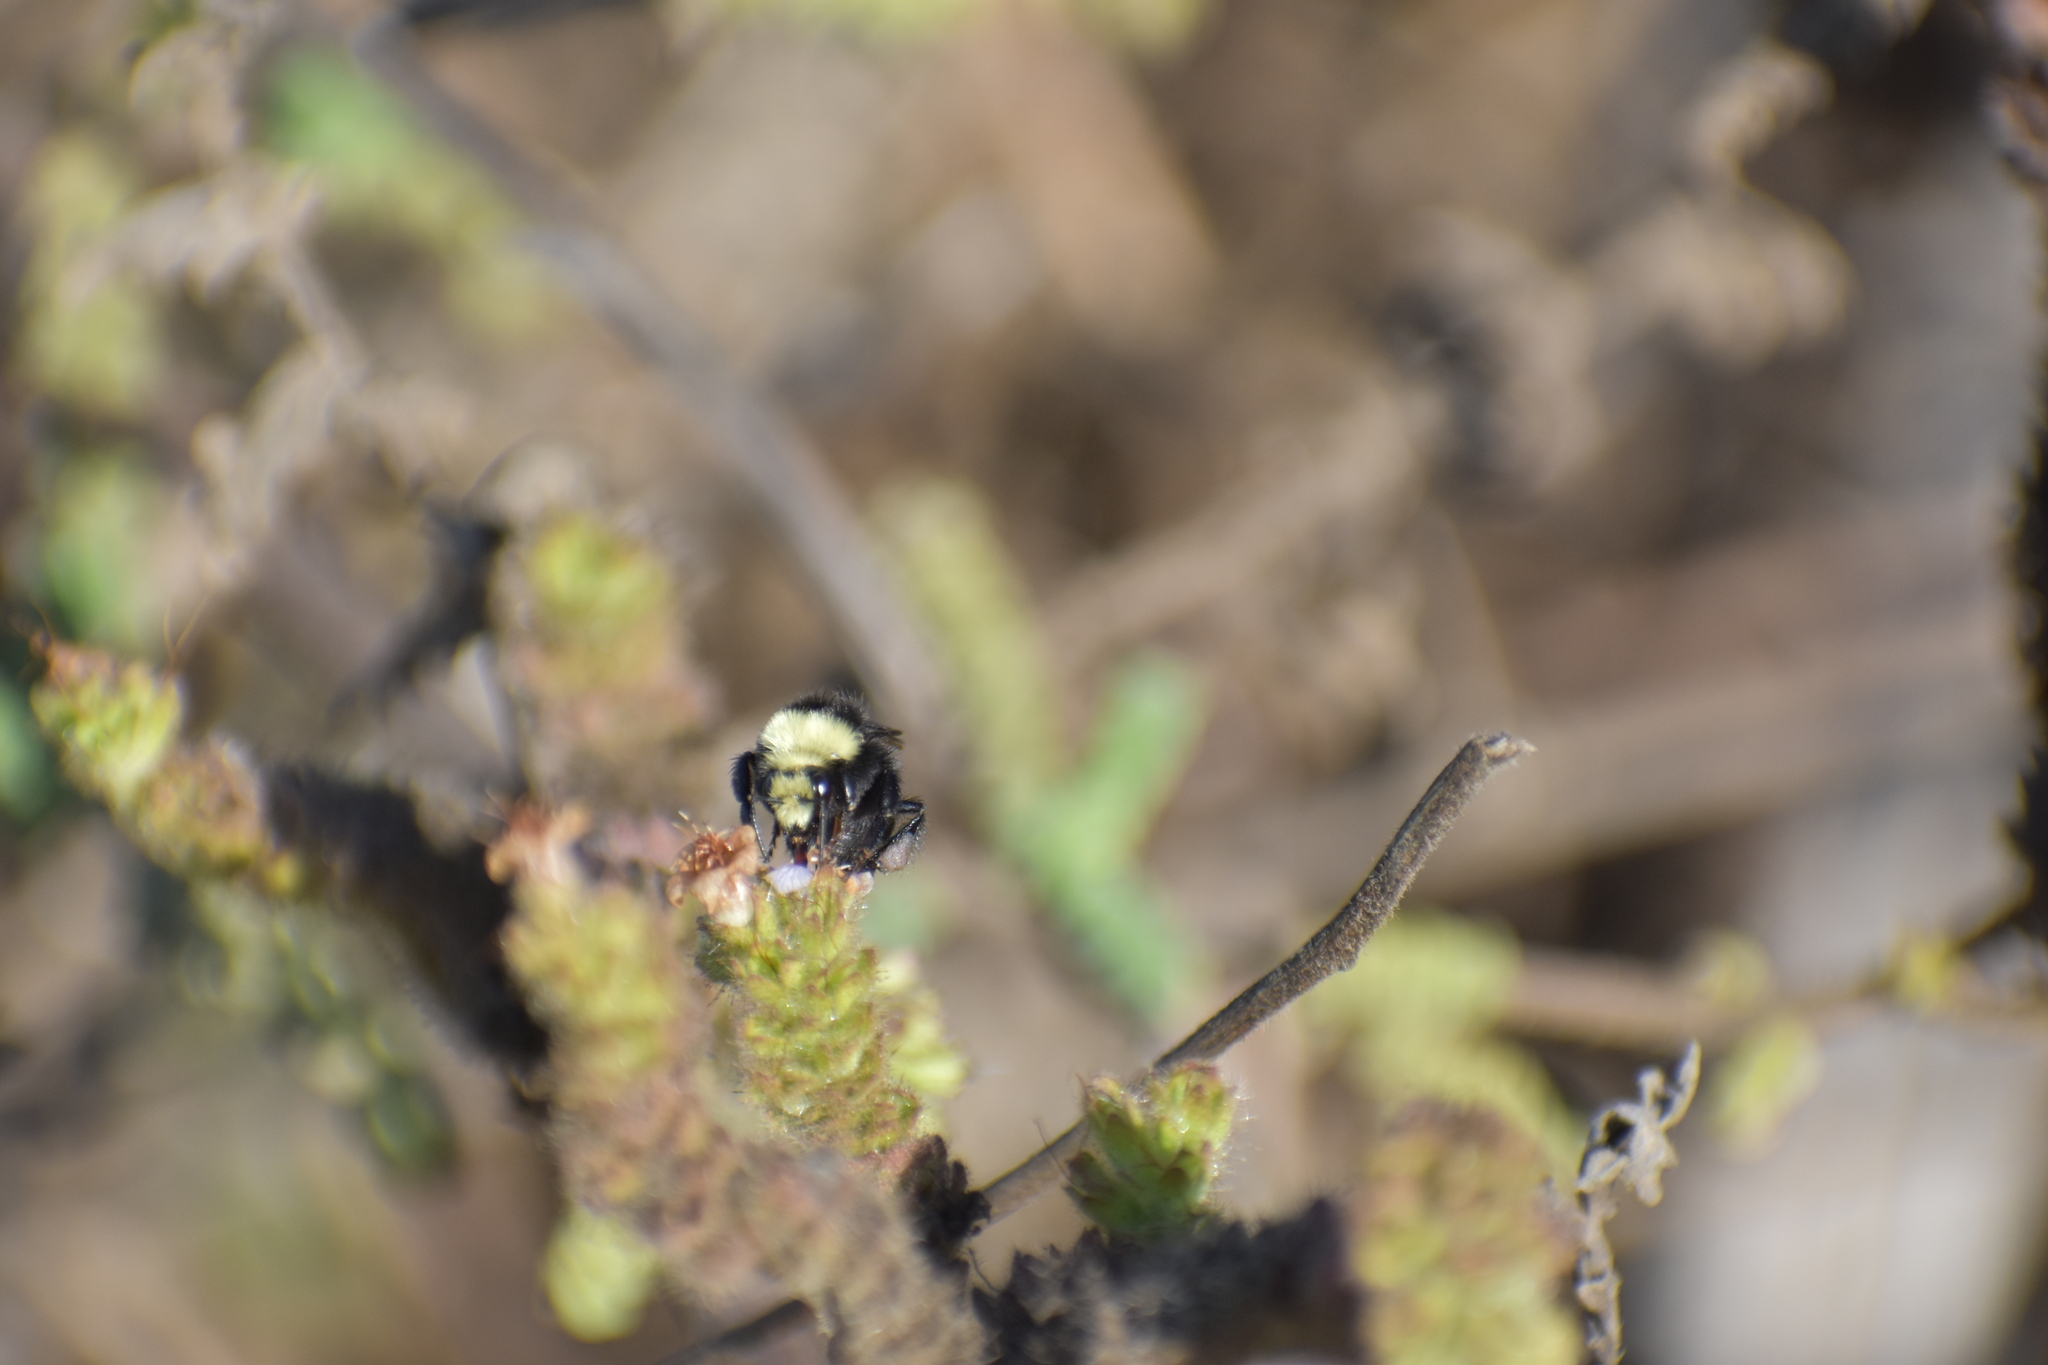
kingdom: Animalia
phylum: Arthropoda
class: Insecta
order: Hymenoptera
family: Apidae
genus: Pyrobombus
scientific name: Pyrobombus
